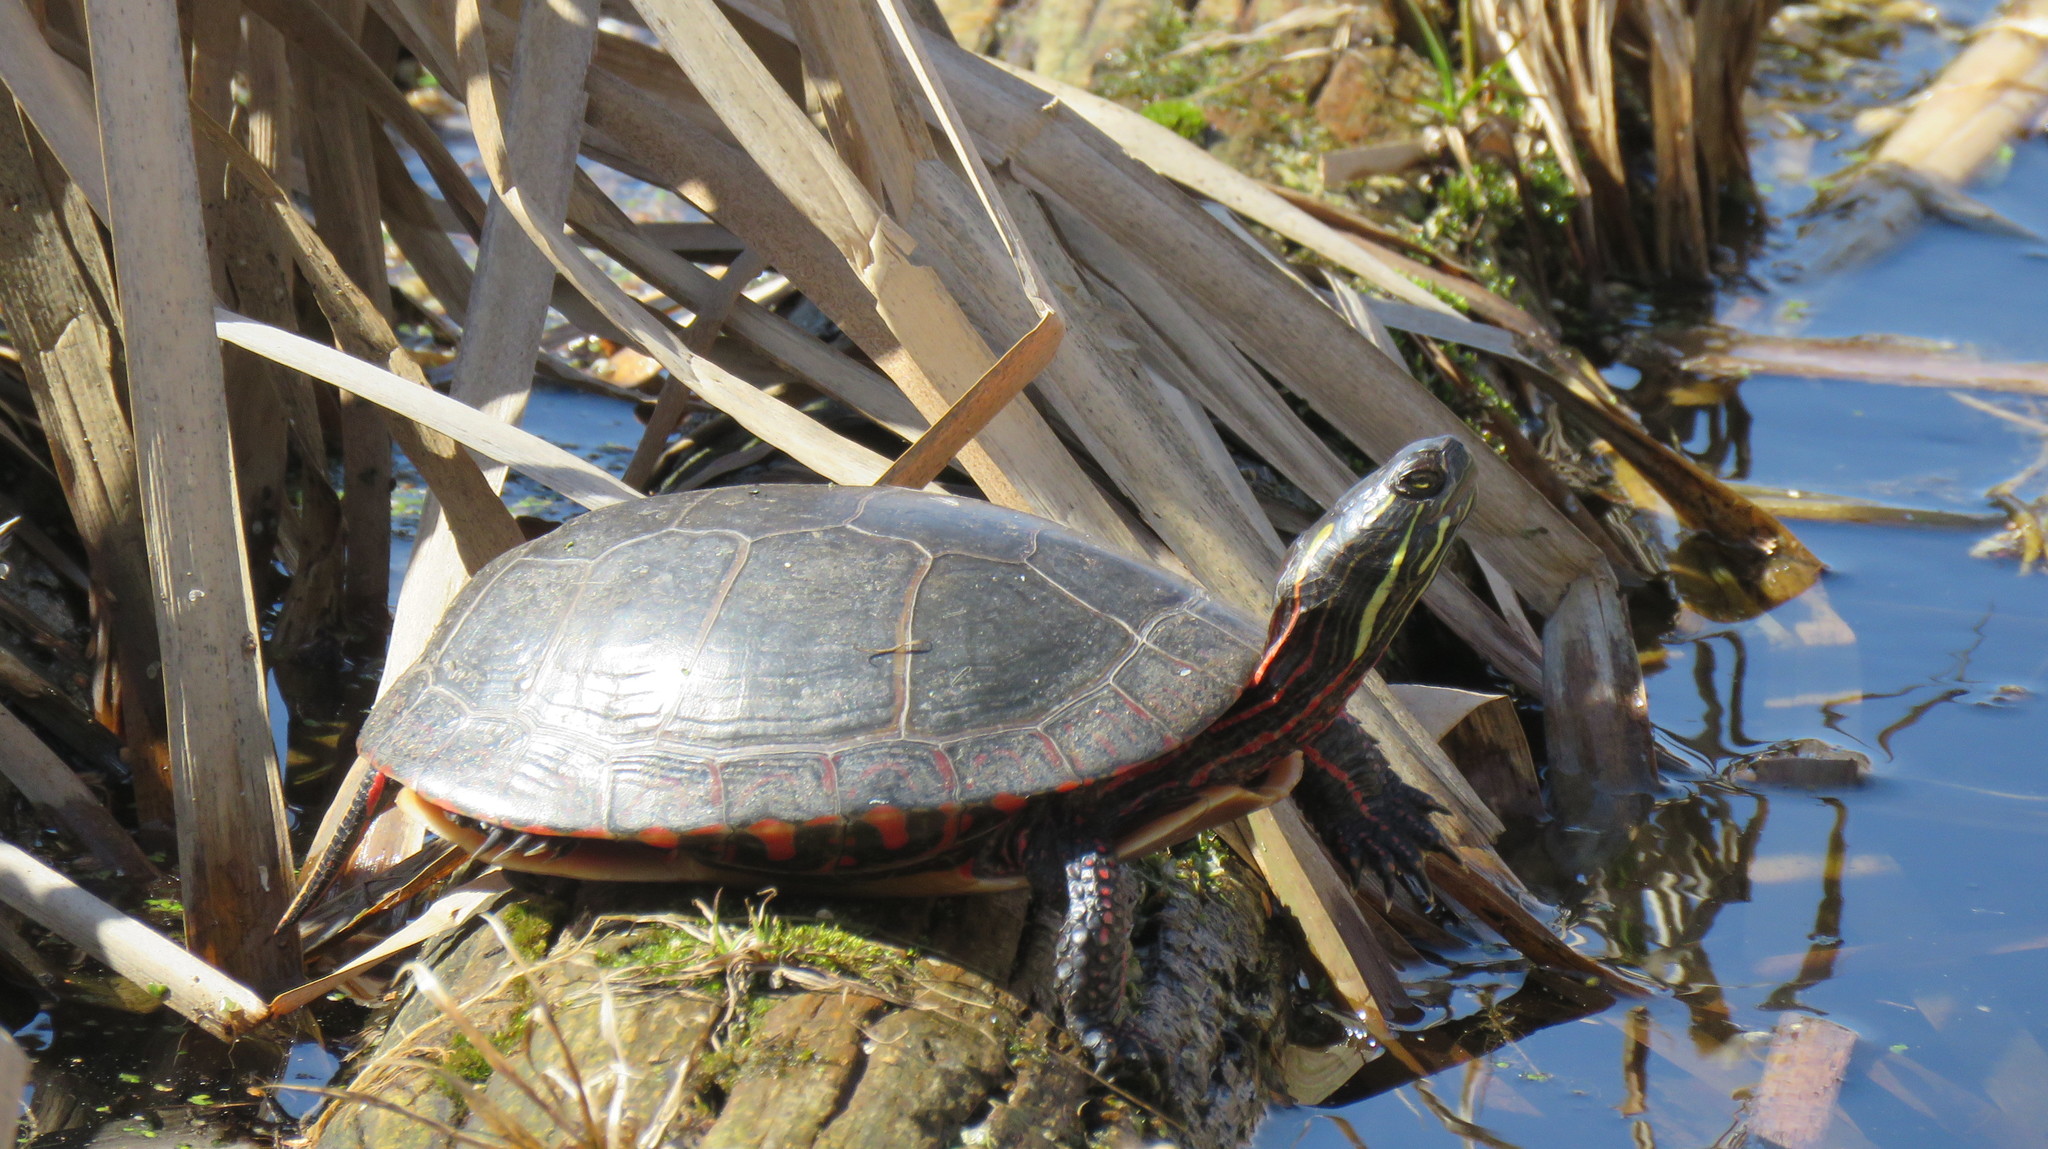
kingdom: Animalia
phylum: Chordata
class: Testudines
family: Emydidae
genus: Chrysemys
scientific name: Chrysemys picta
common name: Painted turtle
